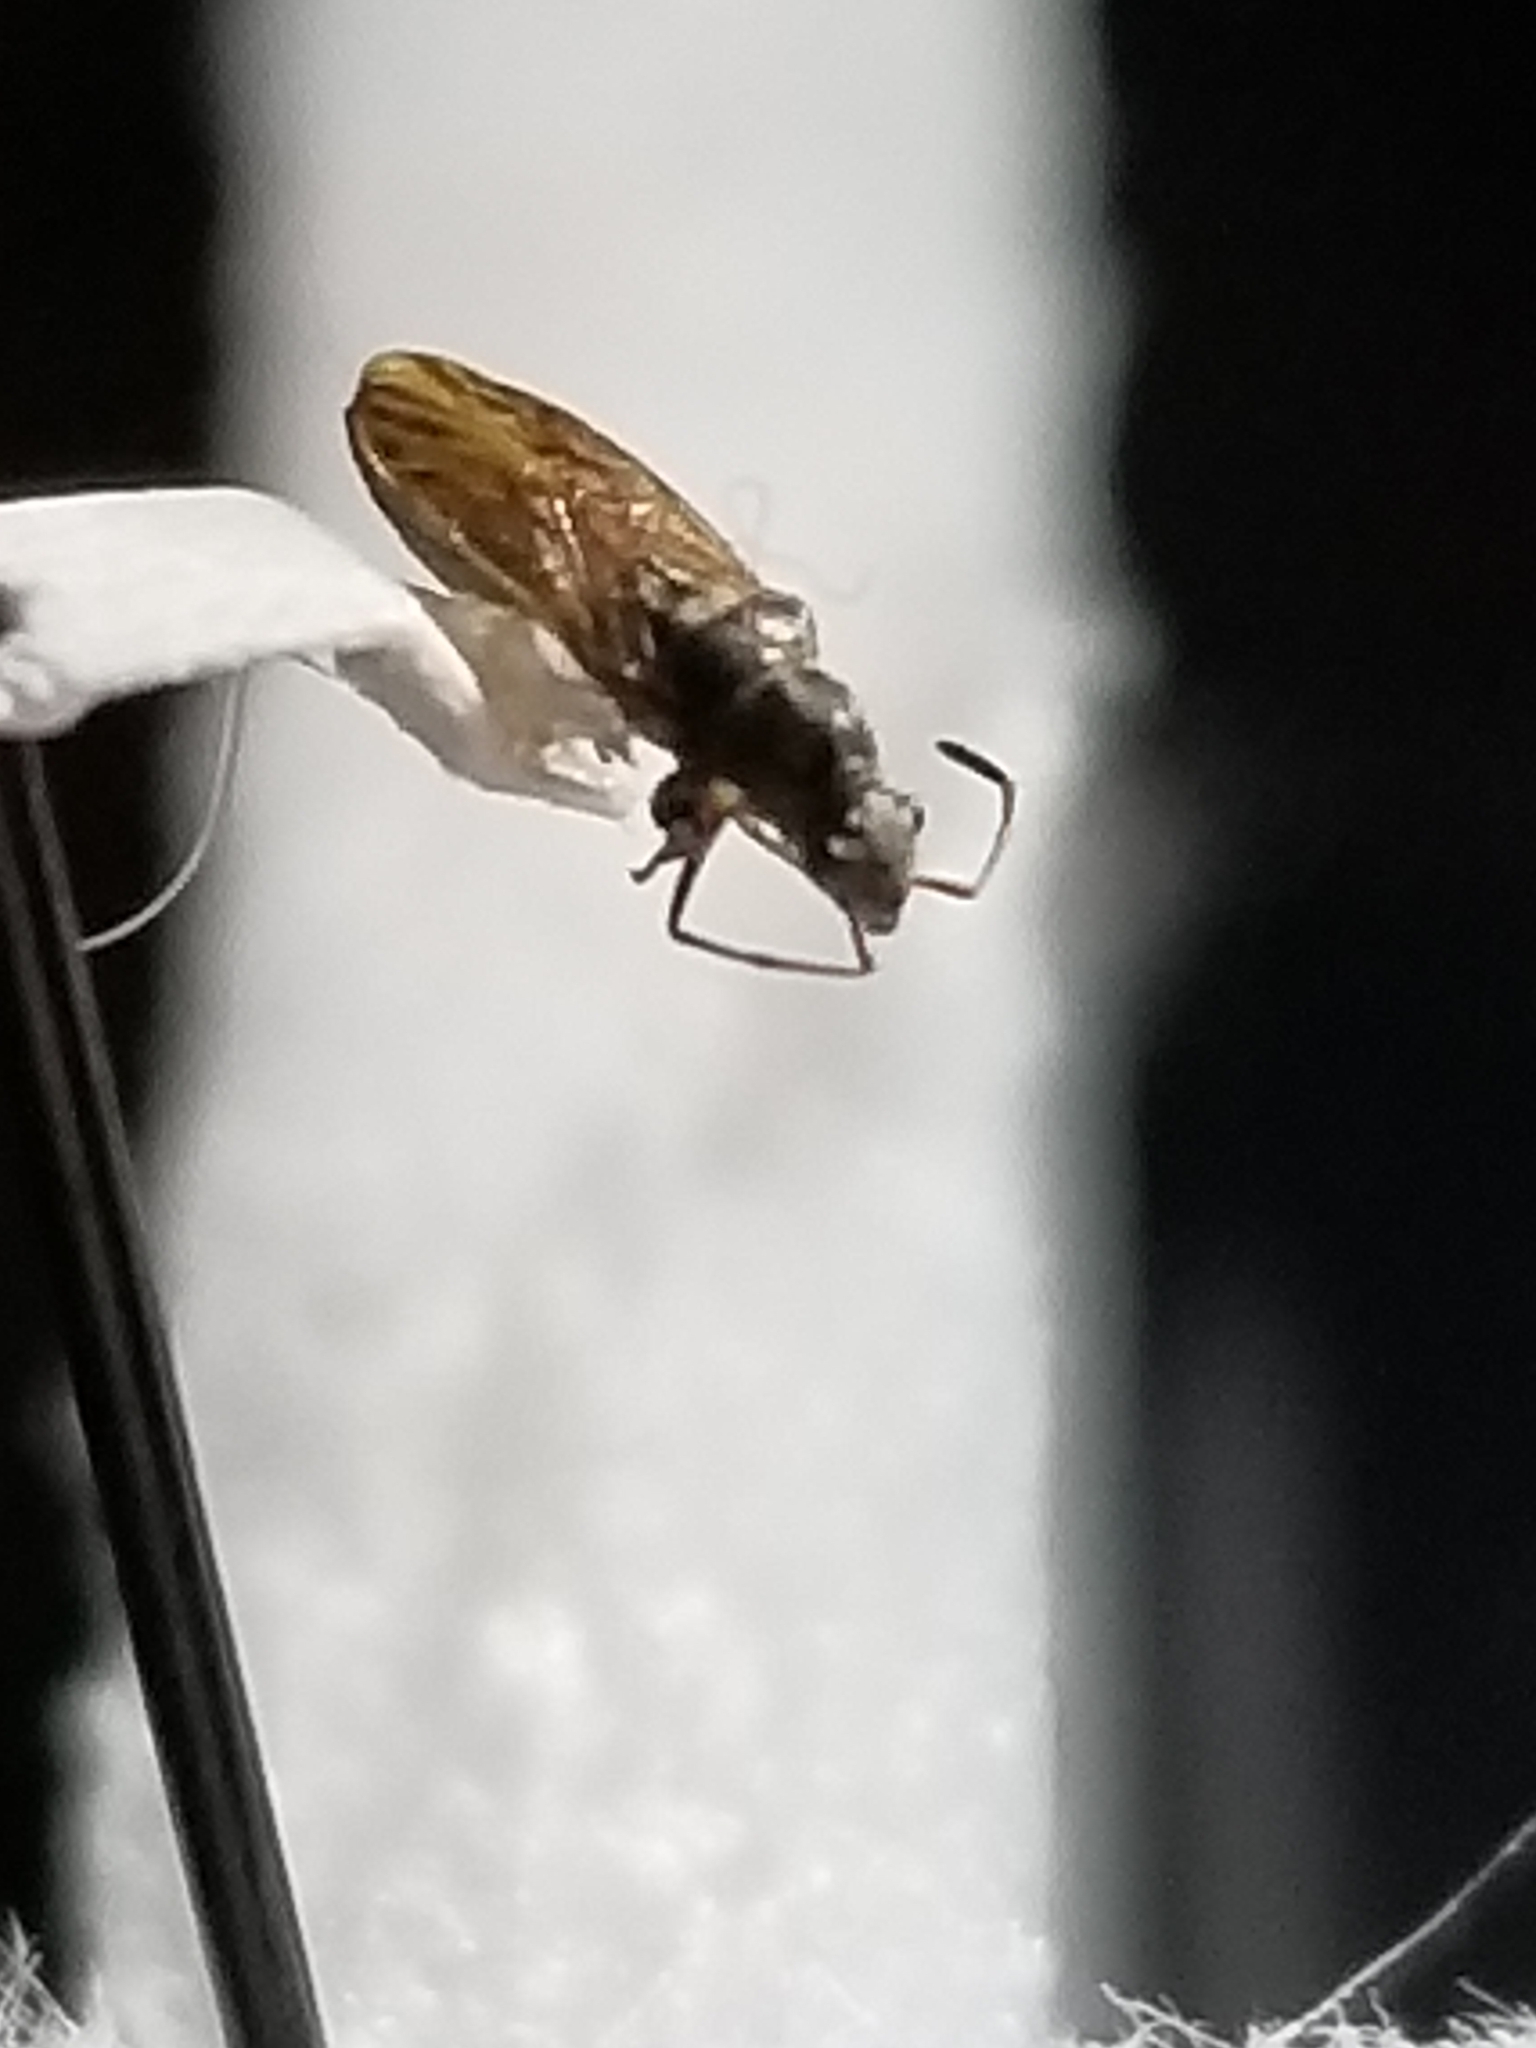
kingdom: Animalia
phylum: Arthropoda
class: Insecta
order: Hemiptera
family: Rhyparochromidae
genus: Pseudopachybrachius
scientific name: Pseudopachybrachius basalis
